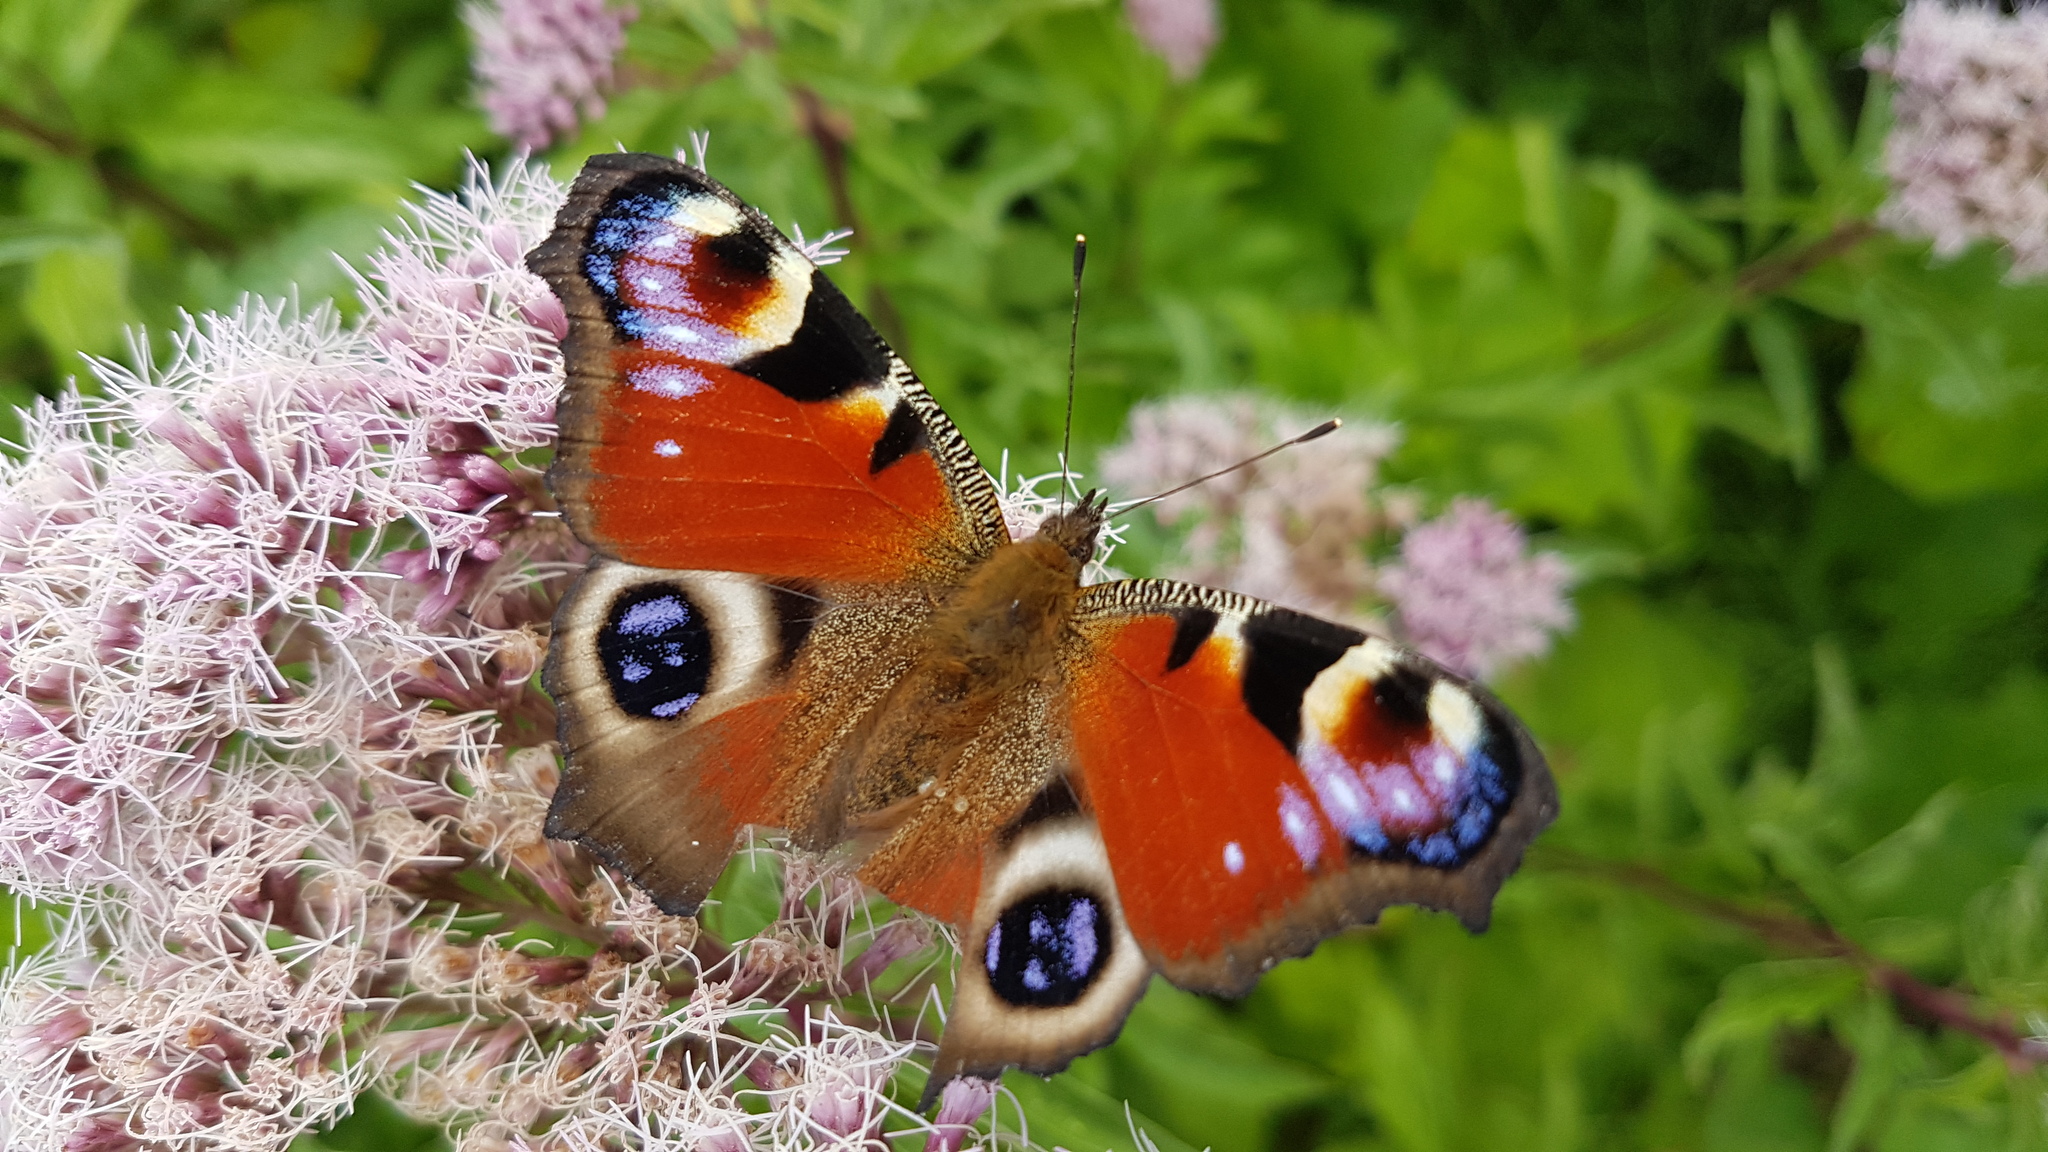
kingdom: Animalia
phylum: Arthropoda
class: Insecta
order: Lepidoptera
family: Nymphalidae
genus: Aglais
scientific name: Aglais io
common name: Peacock
